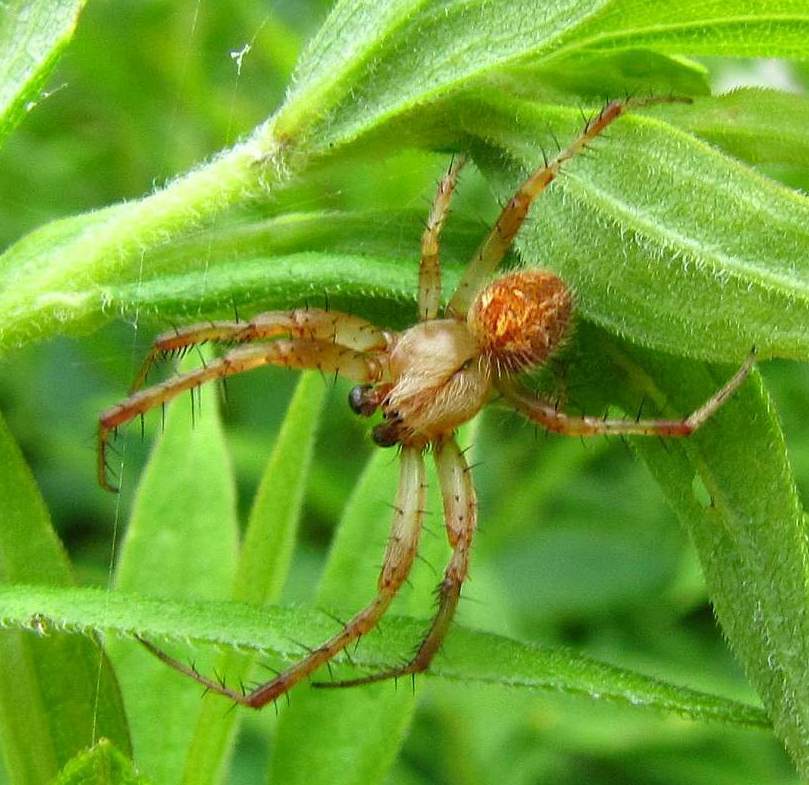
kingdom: Animalia
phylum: Arthropoda
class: Arachnida
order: Araneae
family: Araneidae
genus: Neoscona
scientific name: Neoscona arabesca
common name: Orb weavers
